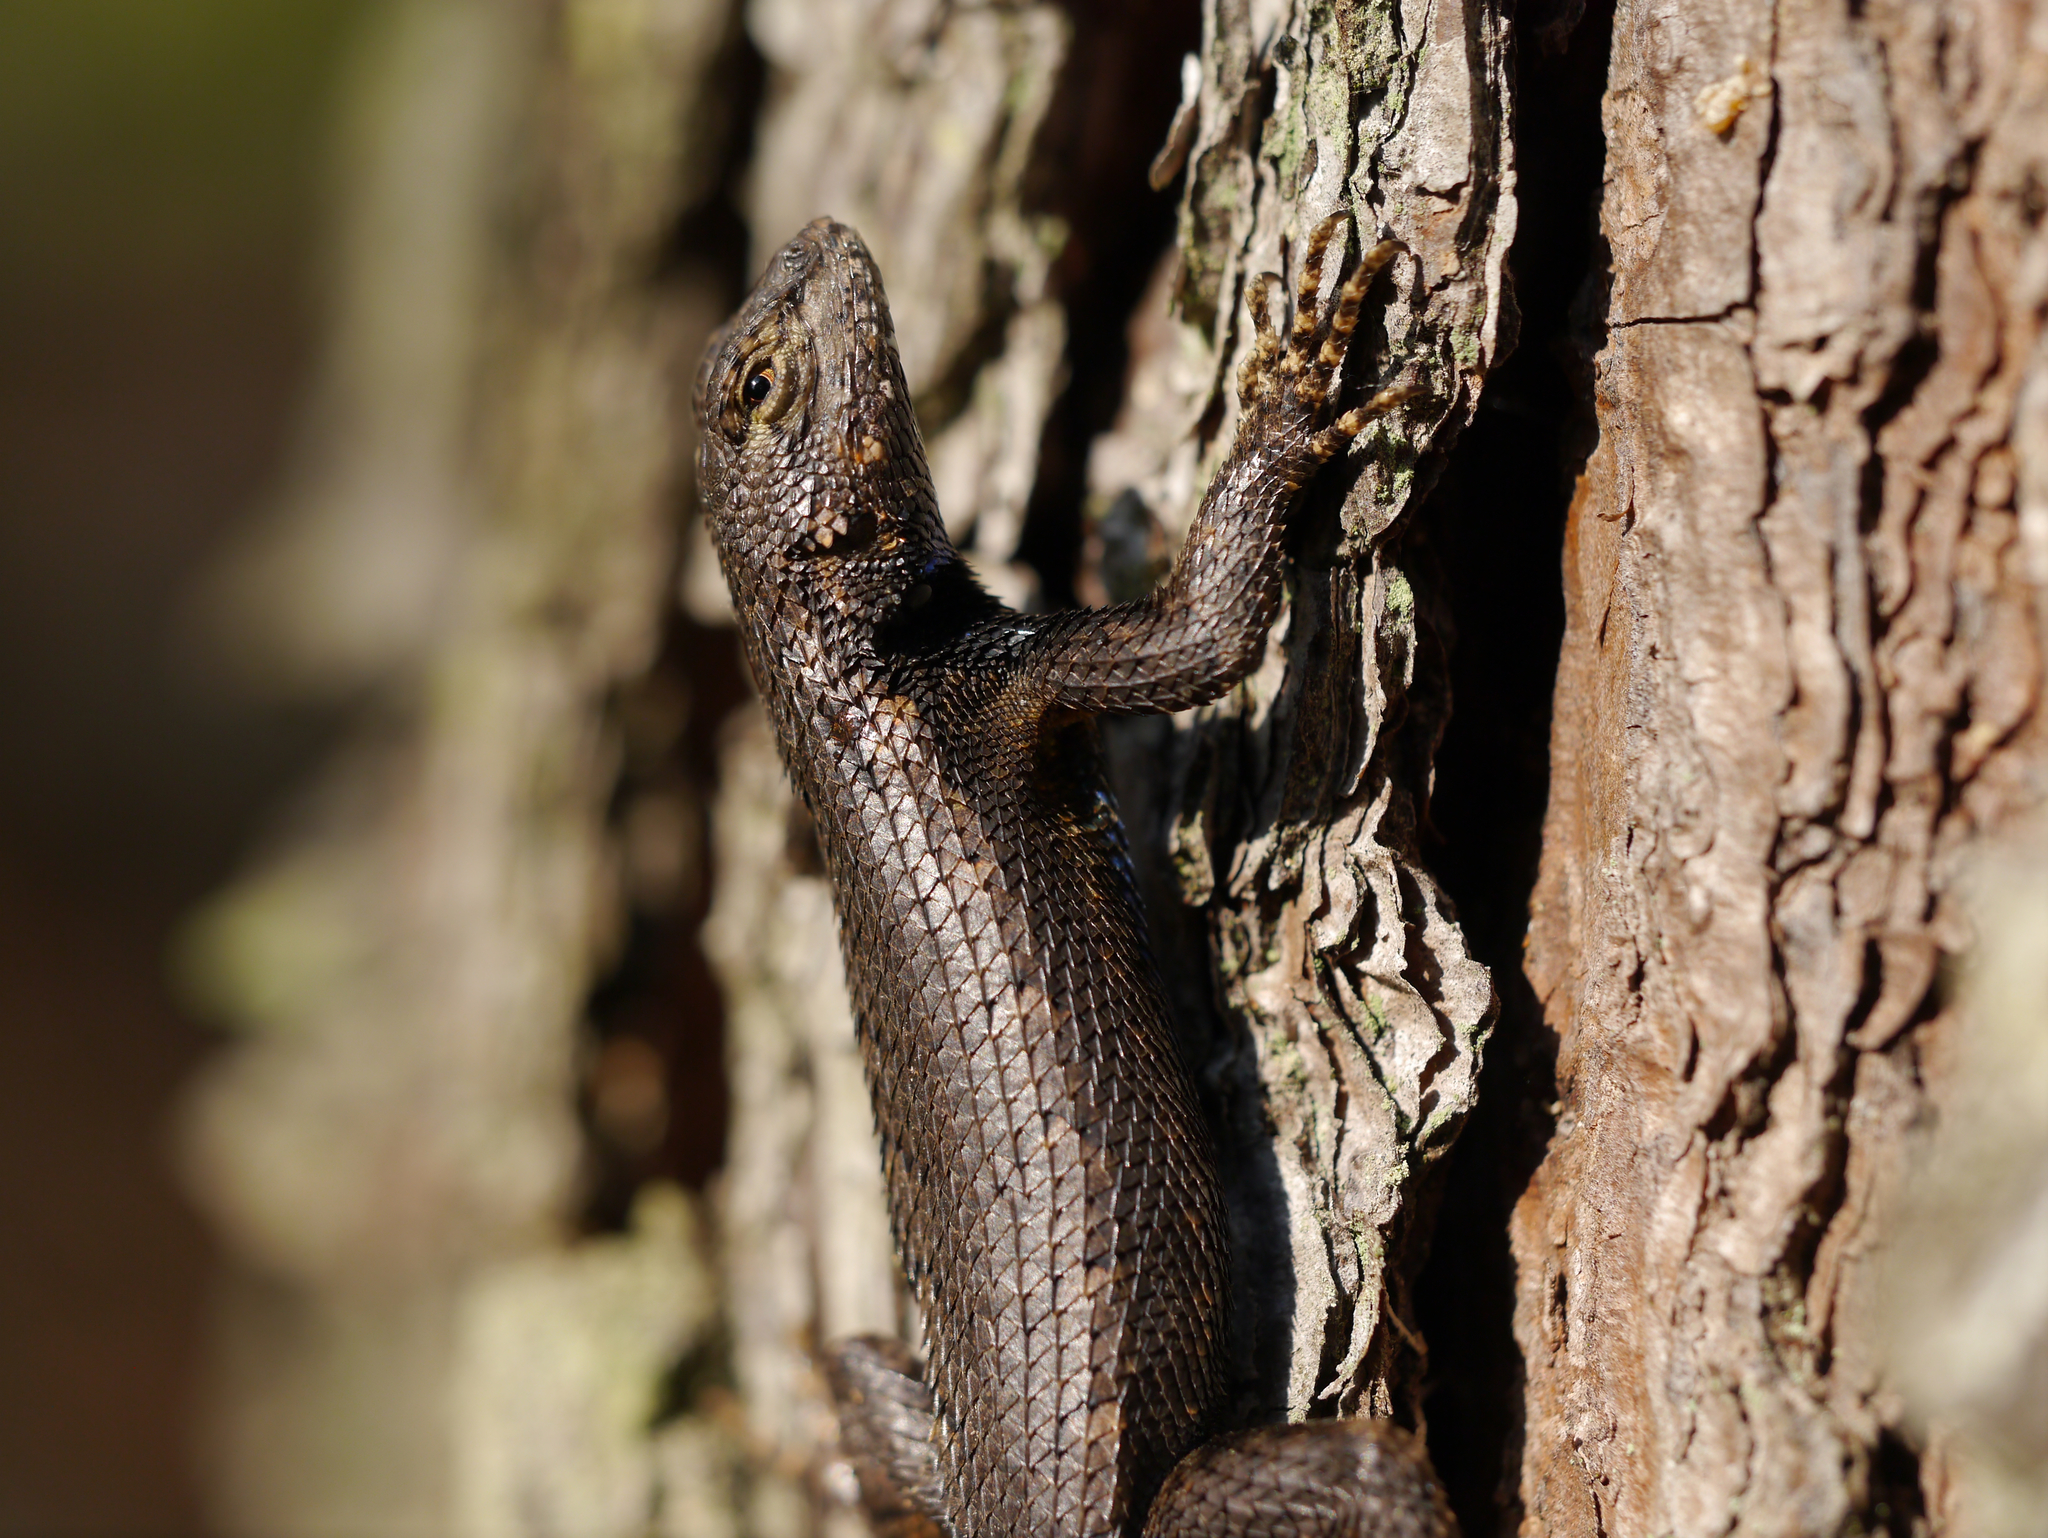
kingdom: Animalia
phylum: Chordata
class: Squamata
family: Phrynosomatidae
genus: Sceloporus
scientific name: Sceloporus undulatus
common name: Eastern fence lizard
